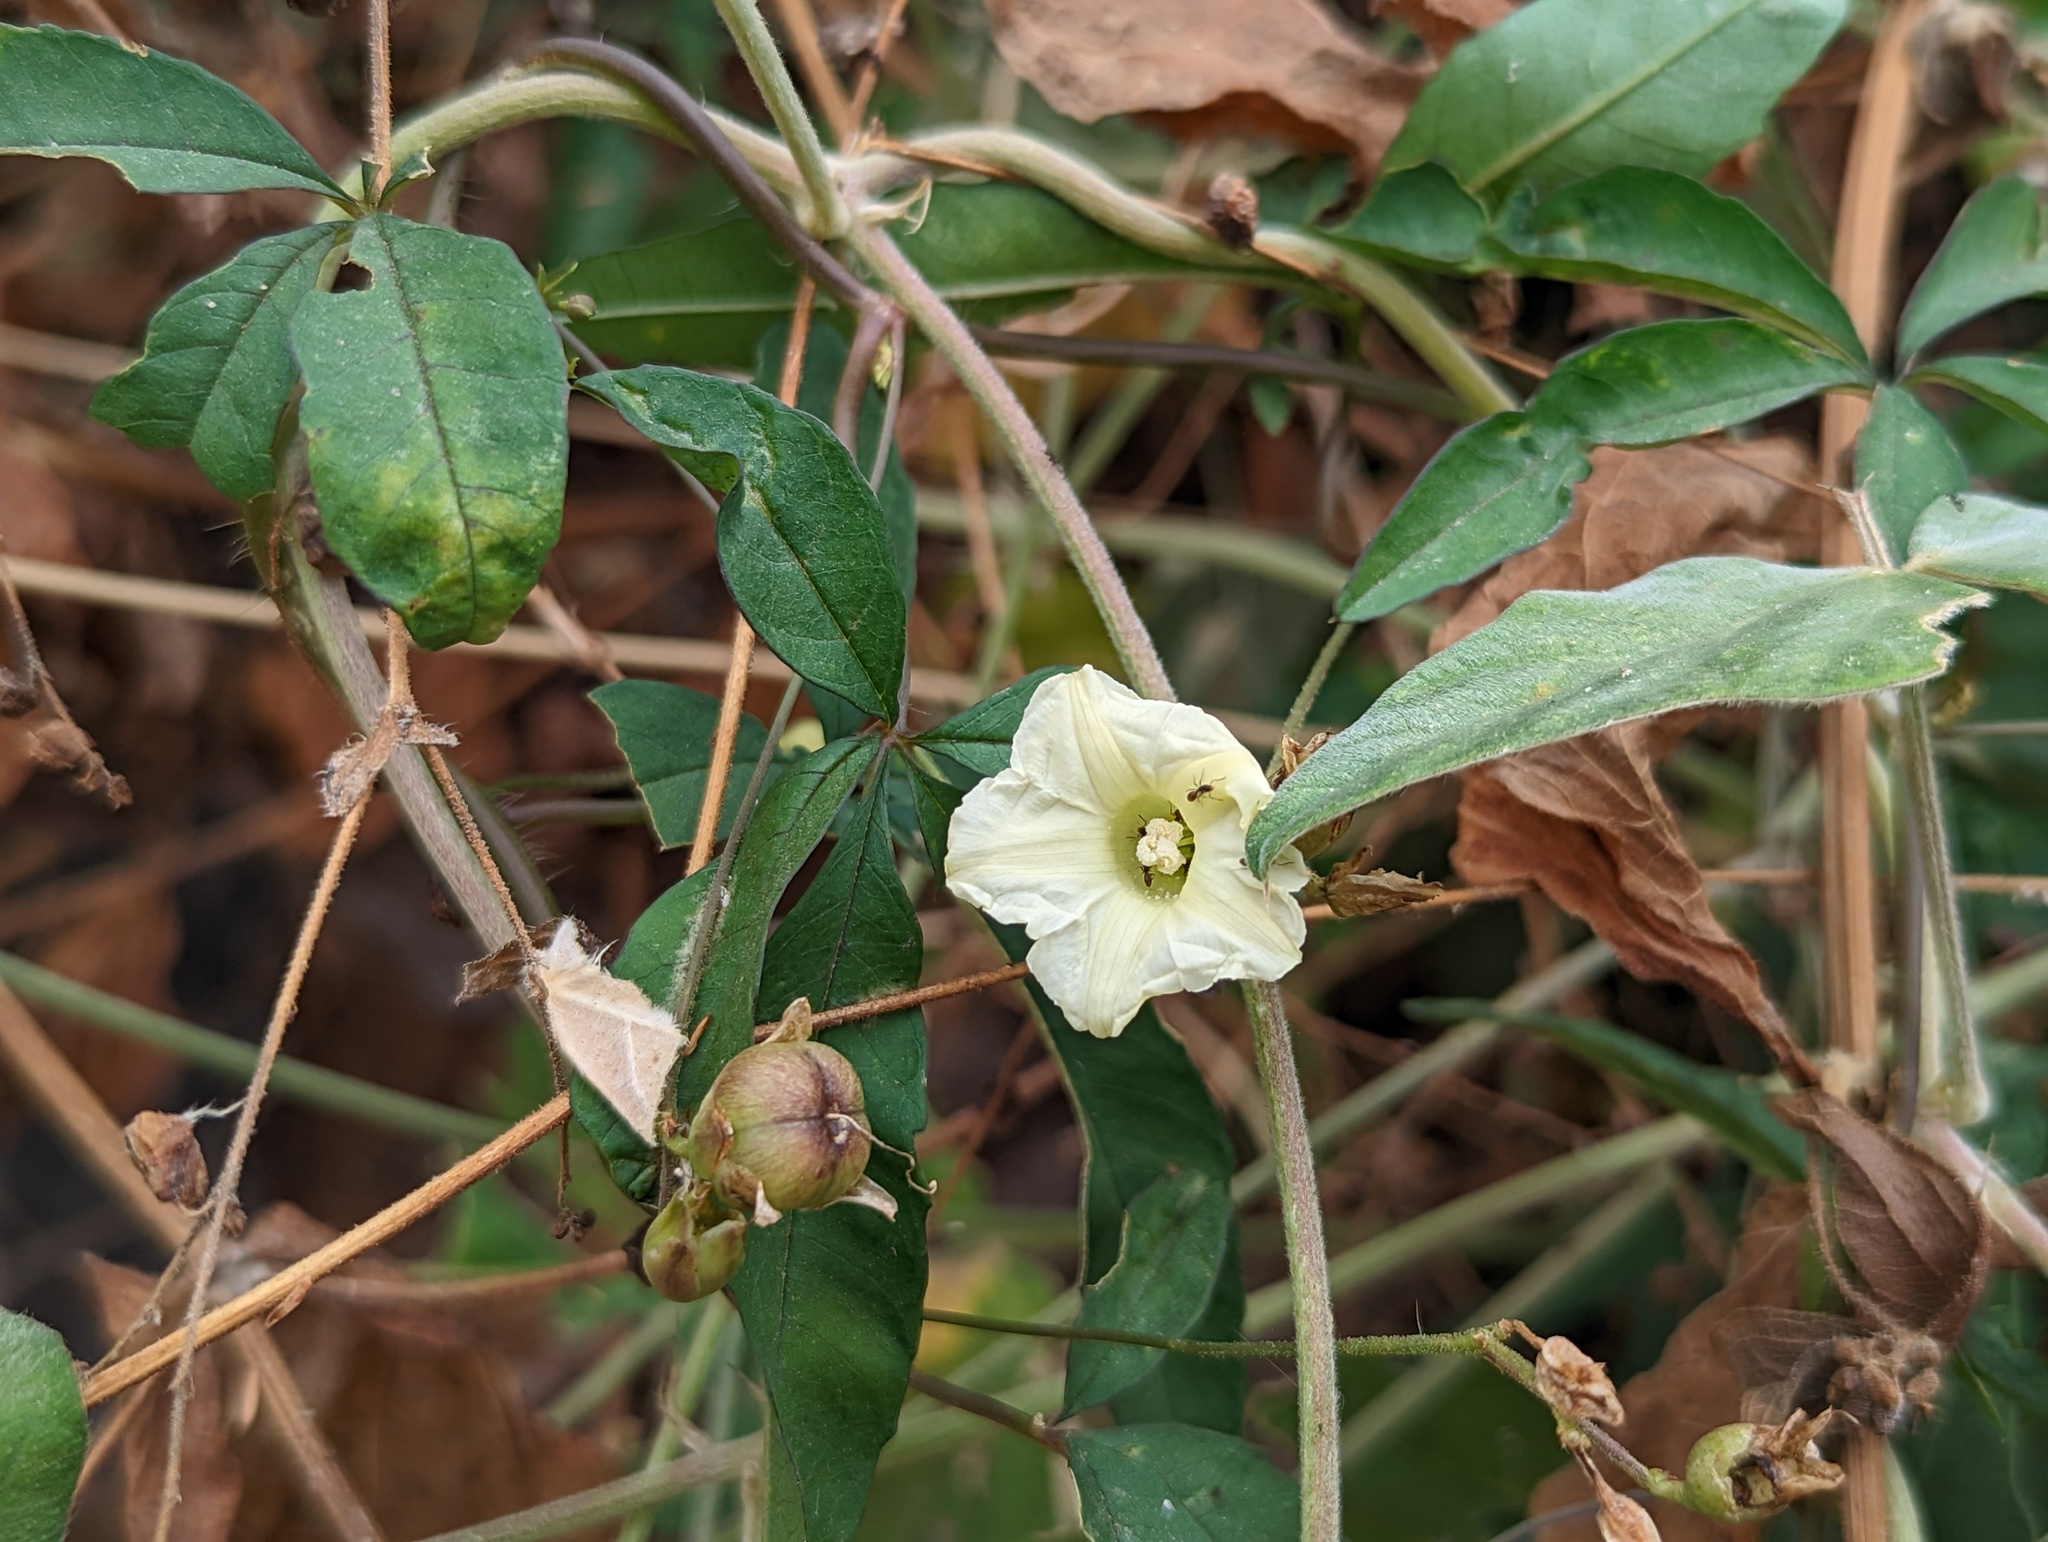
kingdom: Plantae
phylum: Tracheophyta
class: Magnoliopsida
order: Solanales
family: Convolvulaceae
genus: Distimake
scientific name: Distimake quinquefolius
